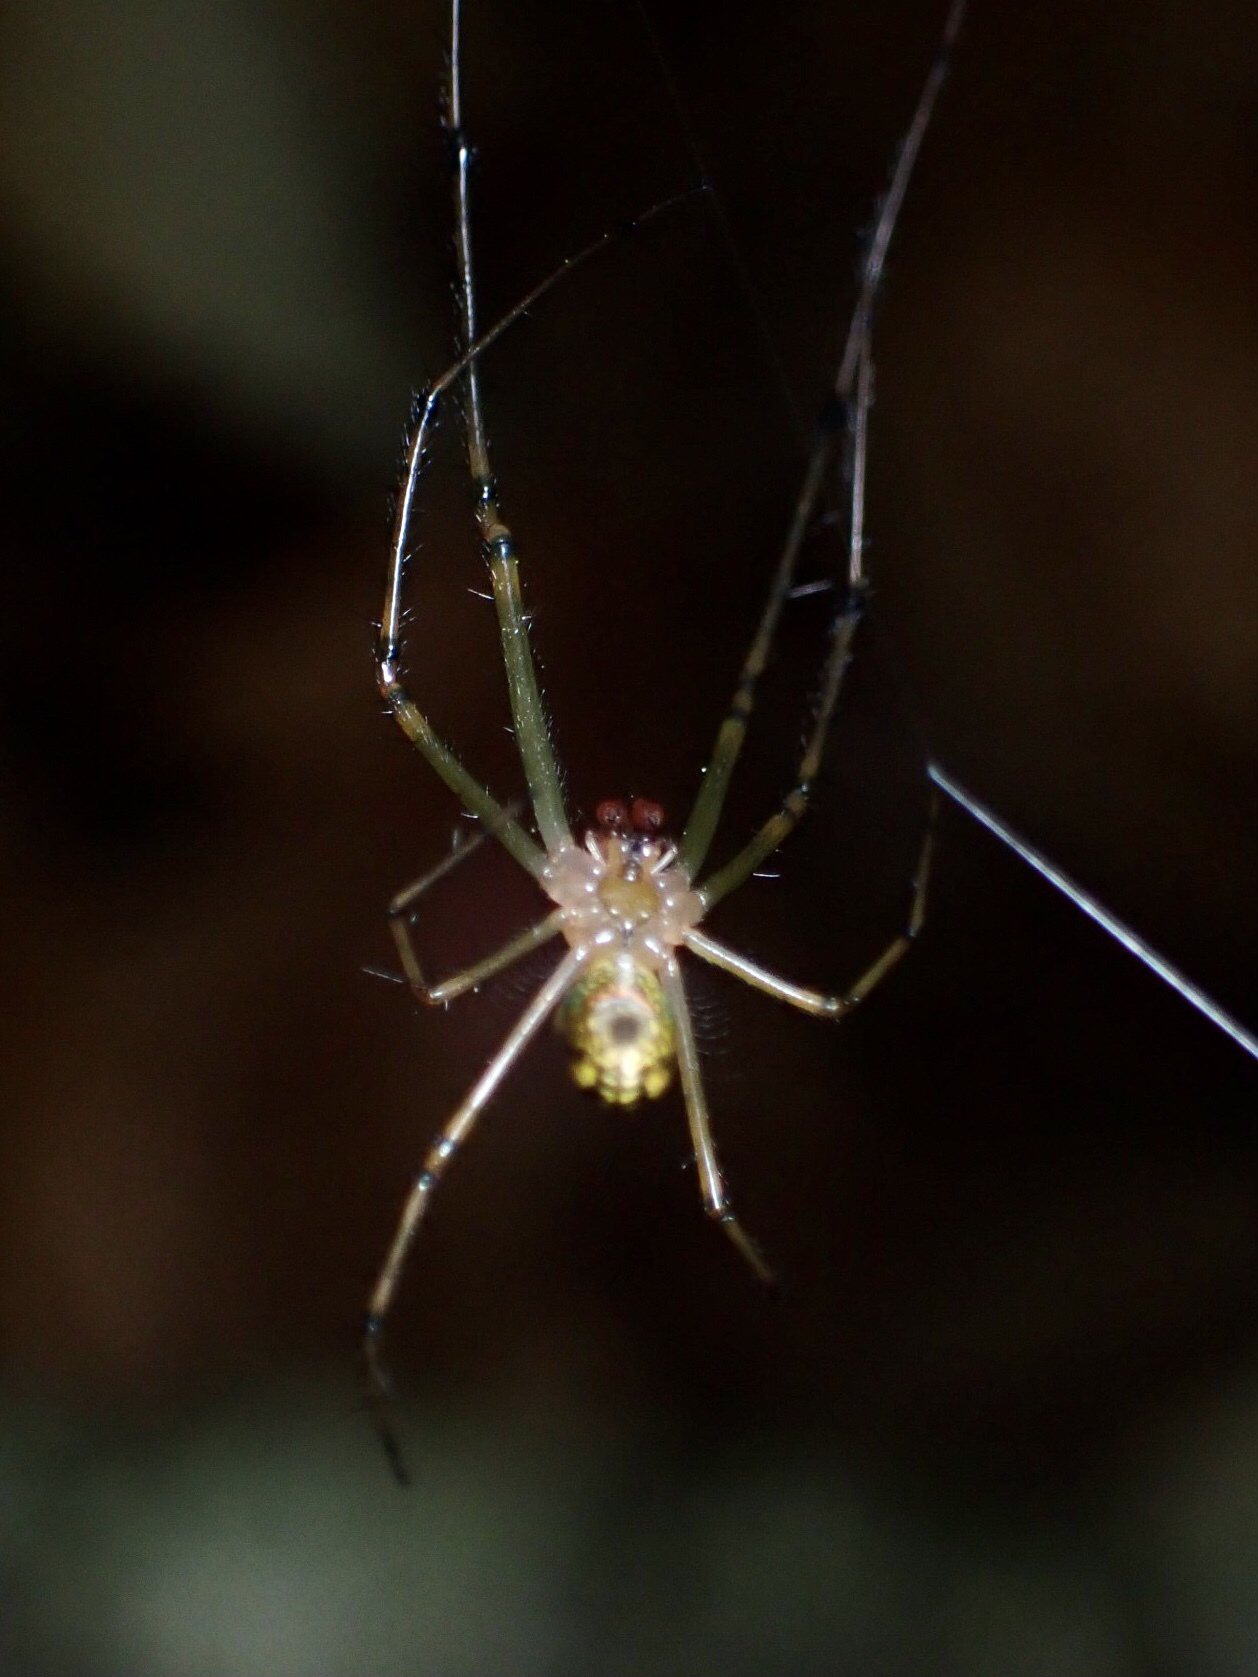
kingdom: Animalia
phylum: Arthropoda
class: Arachnida
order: Araneae
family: Tetragnathidae
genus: Leucauge
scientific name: Leucauge venusta
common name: Longjawed orb weavers
